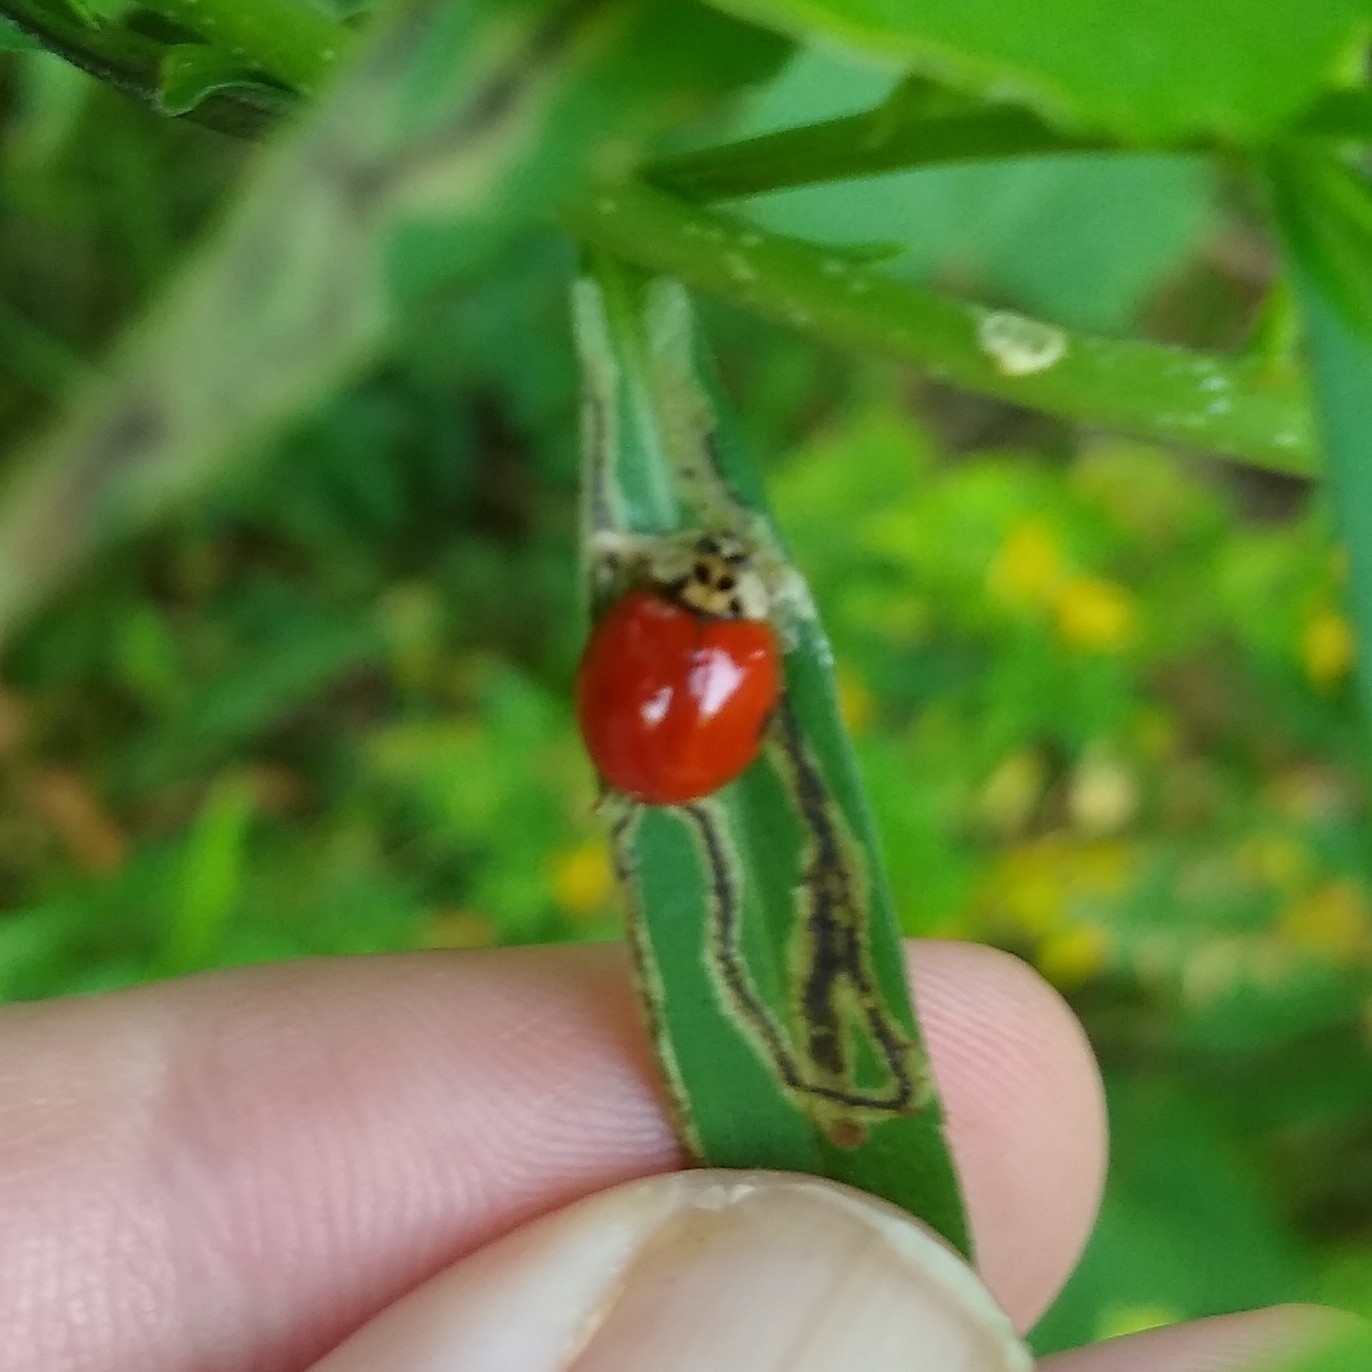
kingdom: Animalia
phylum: Arthropoda
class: Insecta
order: Coleoptera
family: Coccinellidae
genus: Harmonia
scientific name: Harmonia axyridis
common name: Harlequin ladybird
